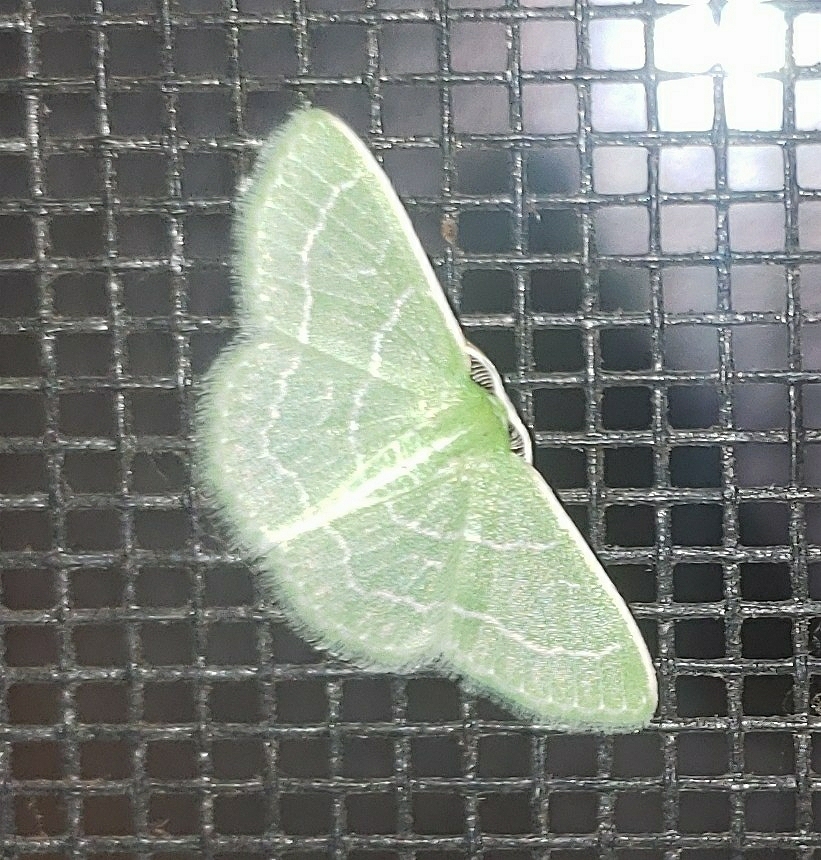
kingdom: Animalia
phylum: Arthropoda
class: Insecta
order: Lepidoptera
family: Geometridae
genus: Synchlora
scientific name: Synchlora aerata
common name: Wavy-lined emerald
